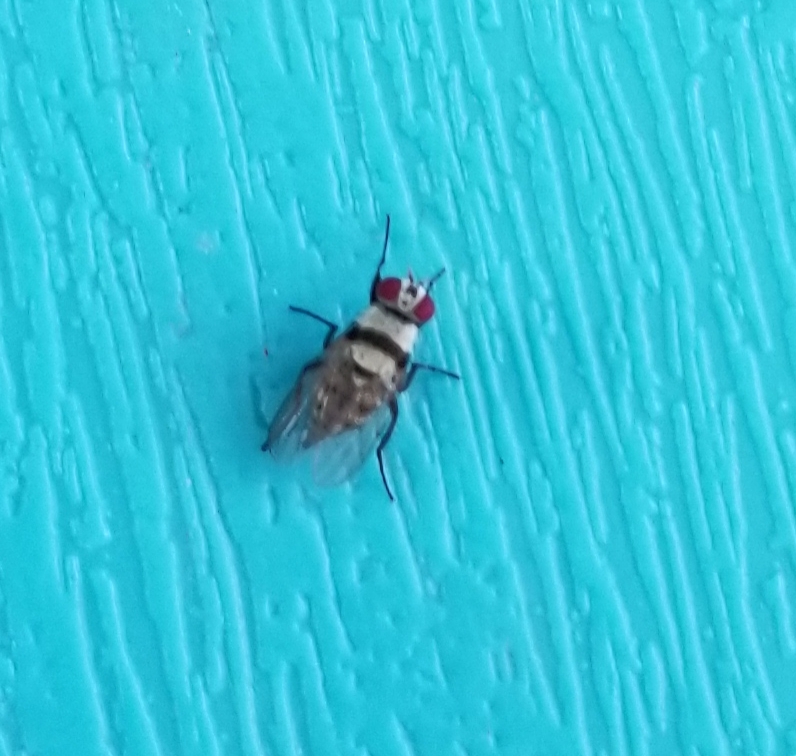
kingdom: Animalia
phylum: Arthropoda
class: Insecta
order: Diptera
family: Anthomyiidae
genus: Anthomyia
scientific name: Anthomyia illocata
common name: Fly
